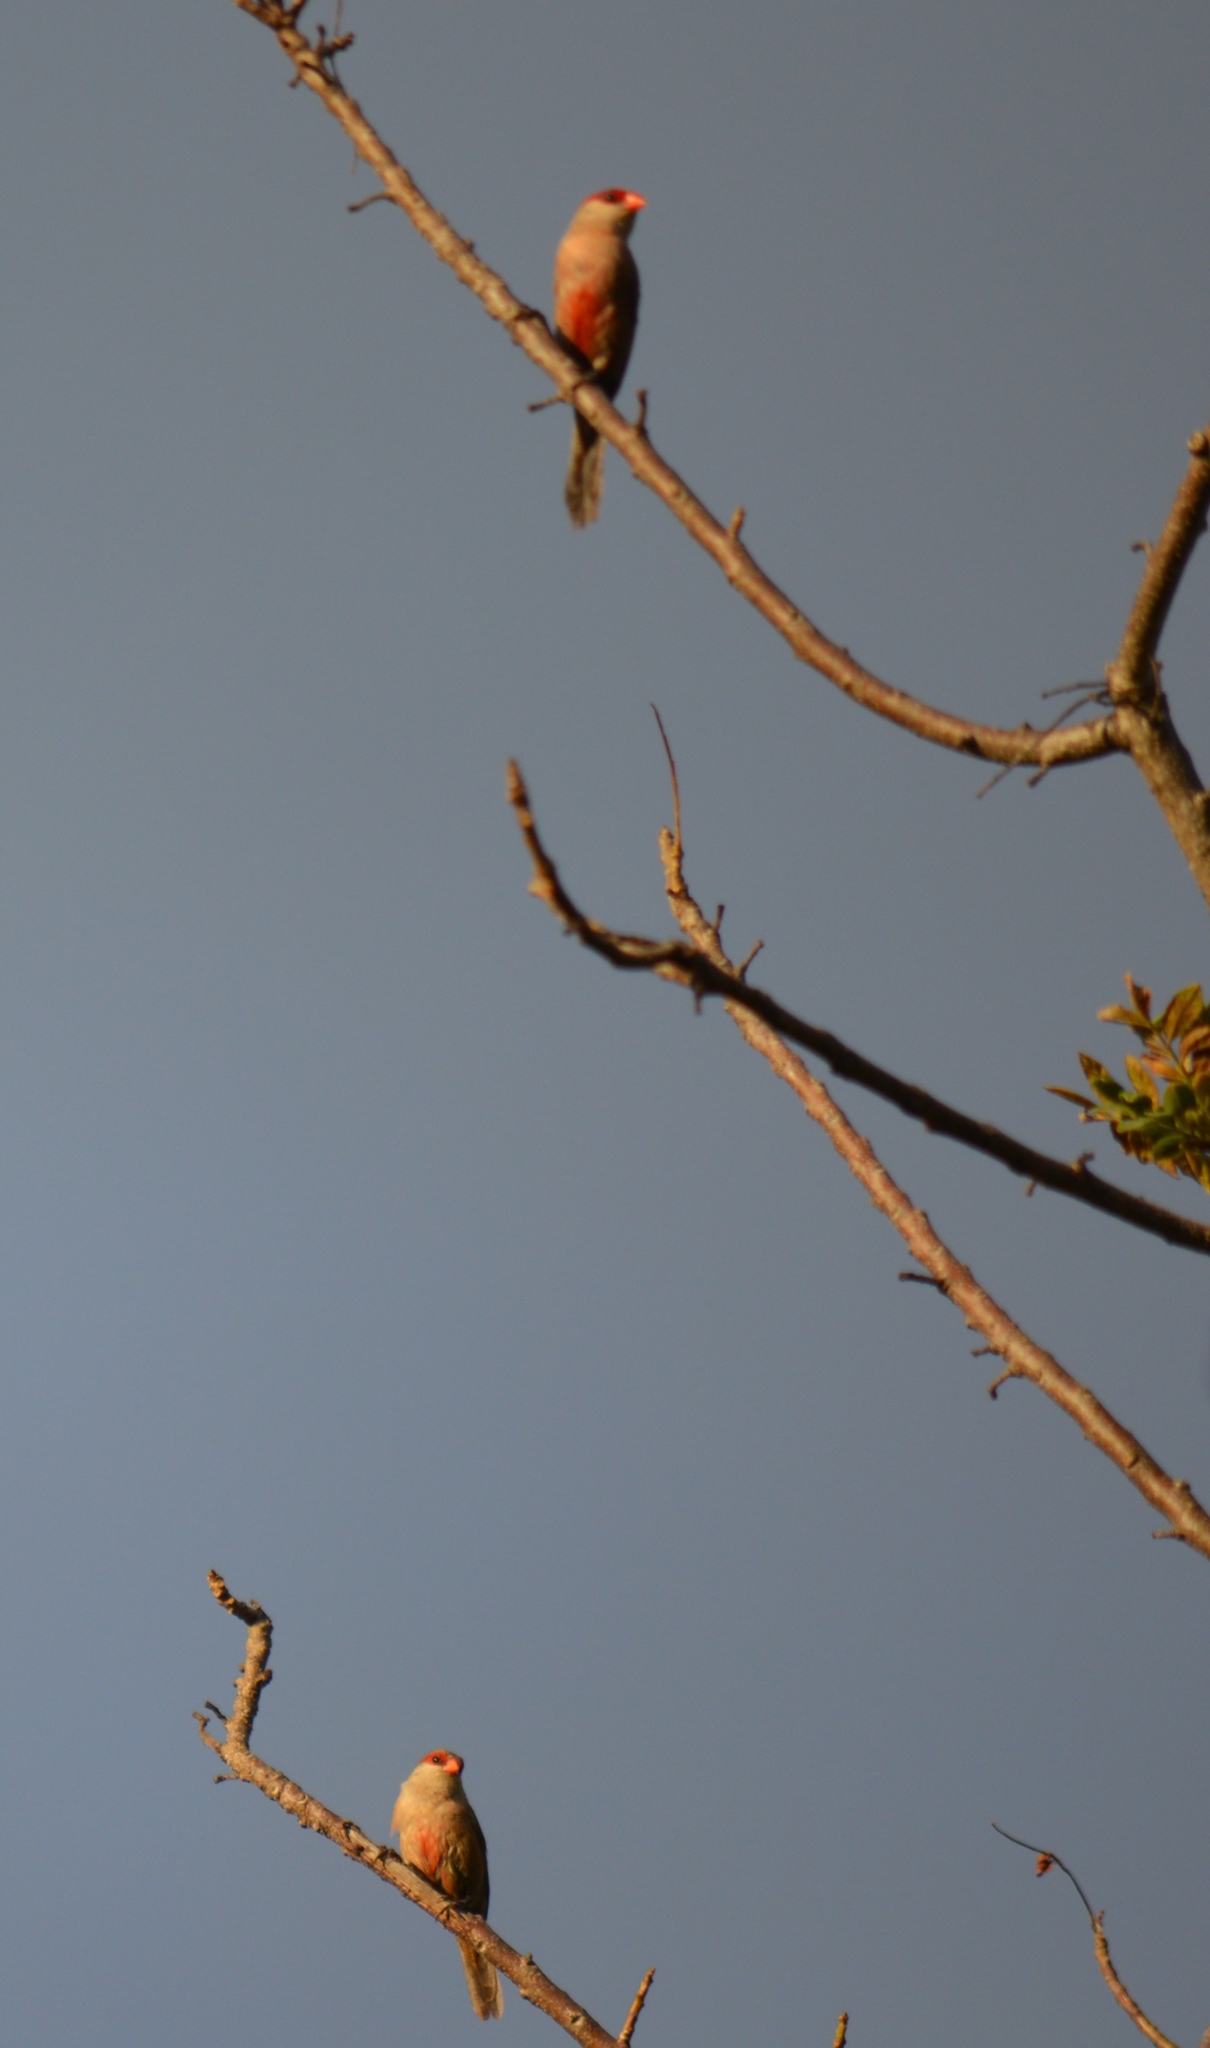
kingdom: Animalia
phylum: Chordata
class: Aves
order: Passeriformes
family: Estrildidae
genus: Estrilda
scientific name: Estrilda astrild
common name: Common waxbill
